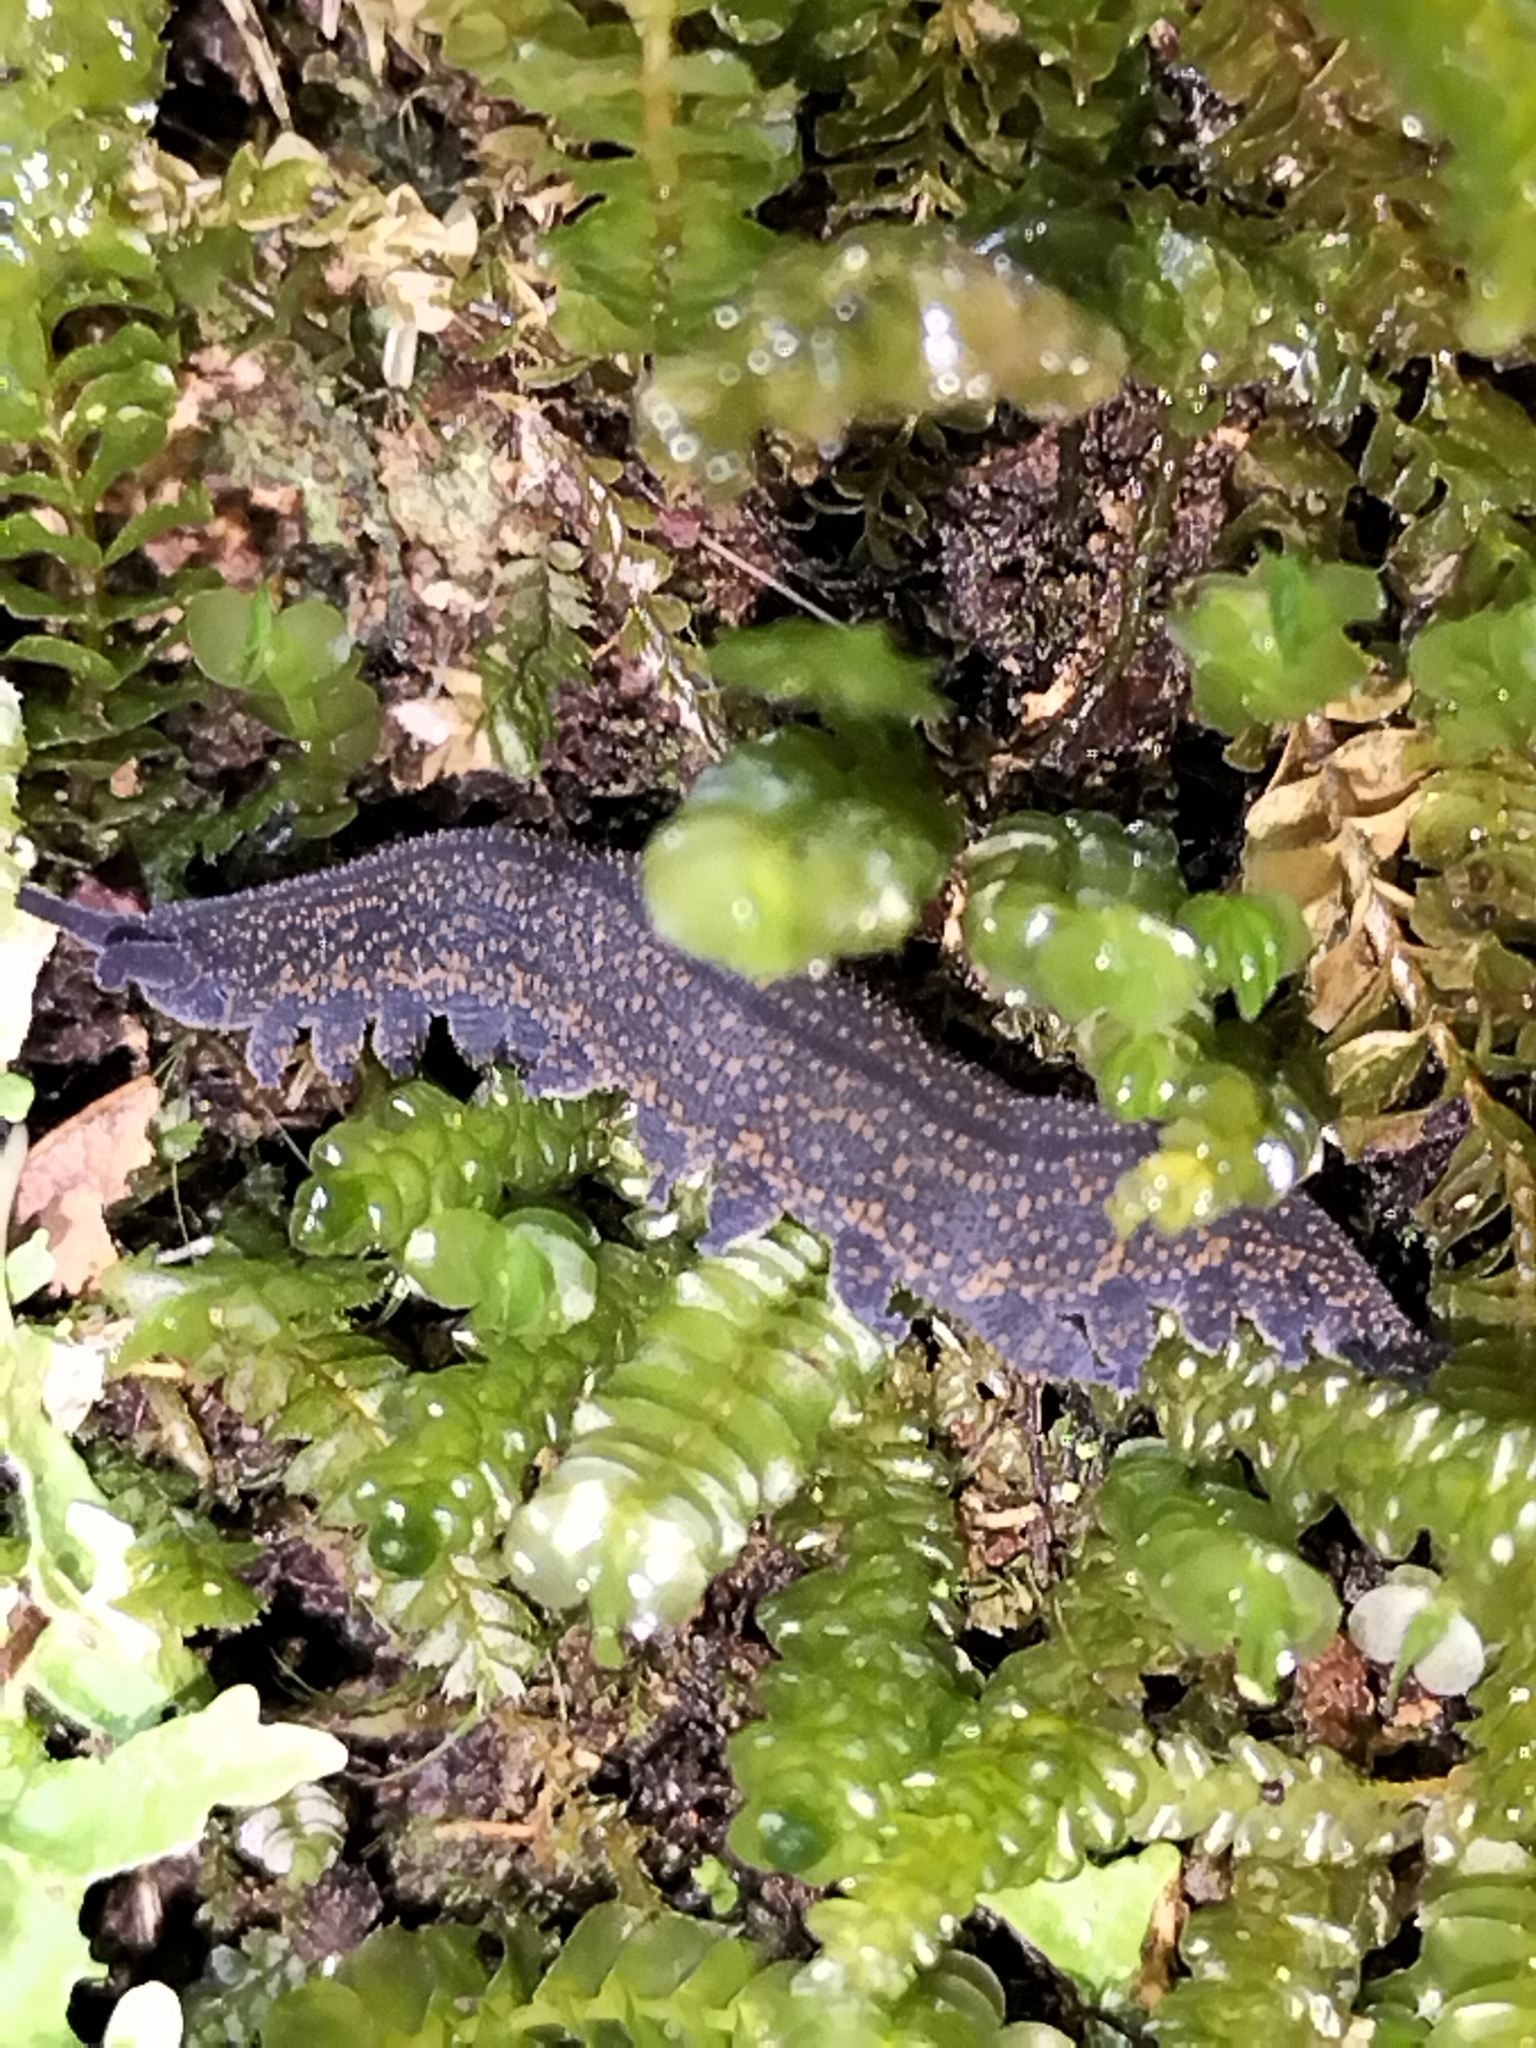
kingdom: Animalia
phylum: Onychophora
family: Peripatopsidae
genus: Peripatoides
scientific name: Peripatoides novaezealandiae
